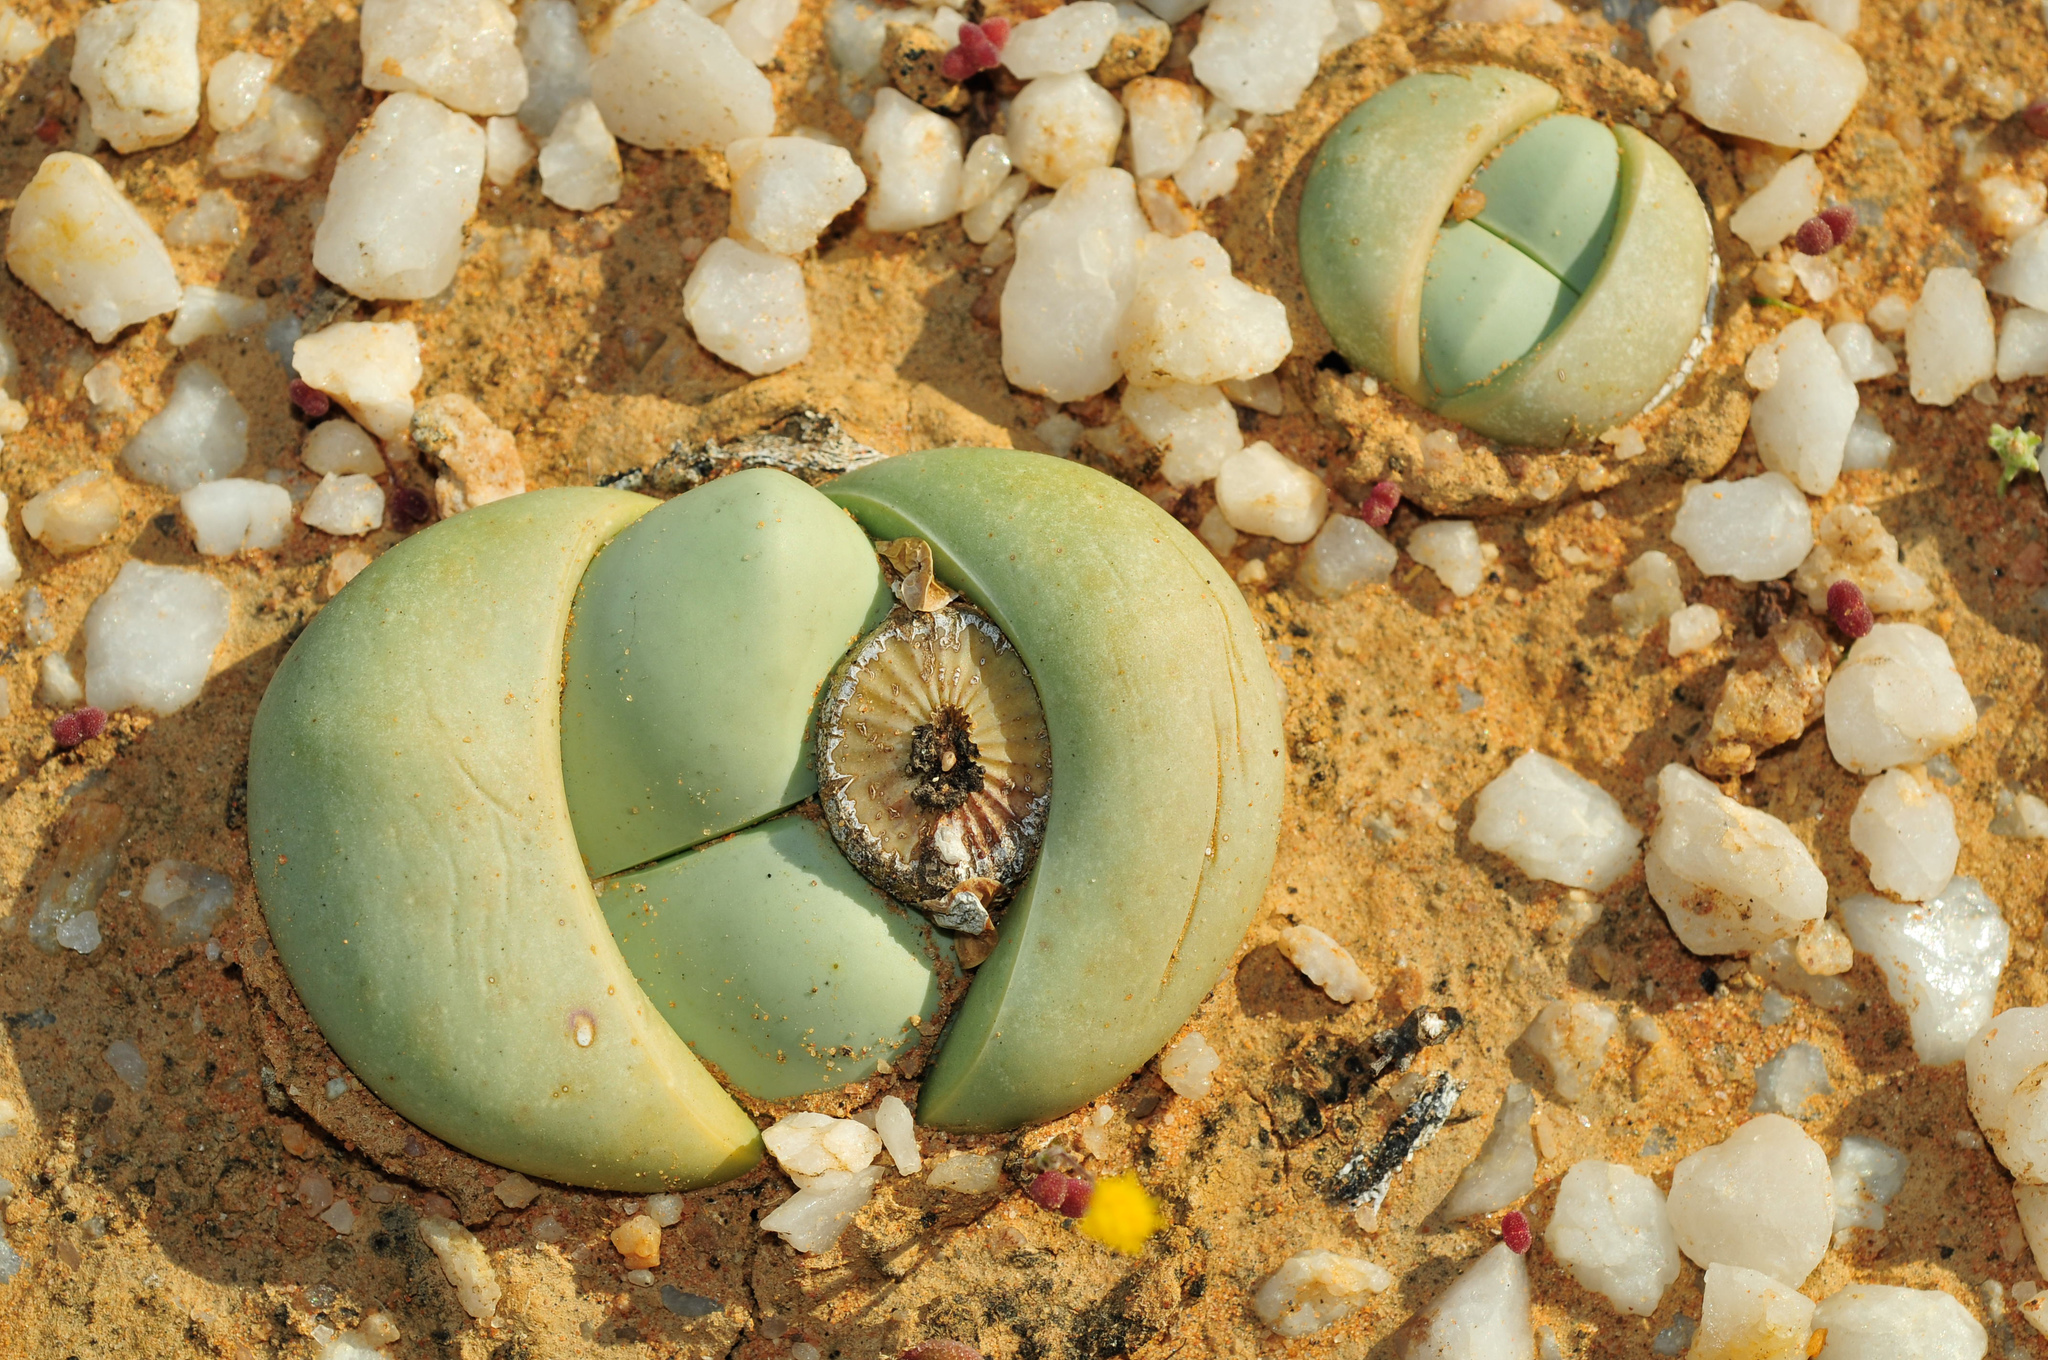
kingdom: Plantae
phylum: Tracheophyta
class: Magnoliopsida
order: Caryophyllales
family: Aizoaceae
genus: Argyroderma
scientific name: Argyroderma delaetii
